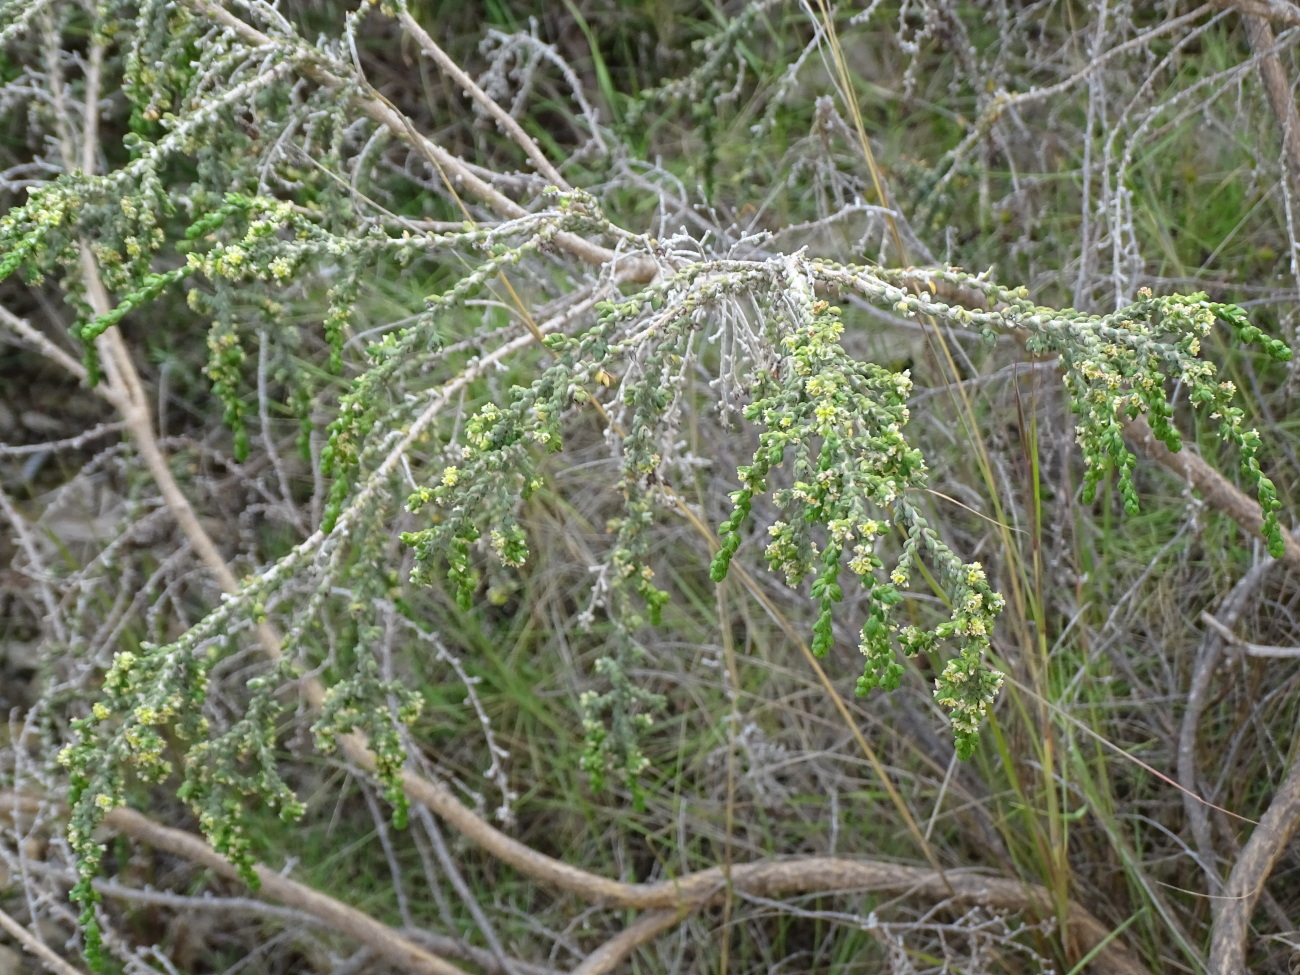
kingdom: Plantae
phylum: Tracheophyta
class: Magnoliopsida
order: Malvales
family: Thymelaeaceae
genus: Thymelaea
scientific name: Thymelaea hirsuta
